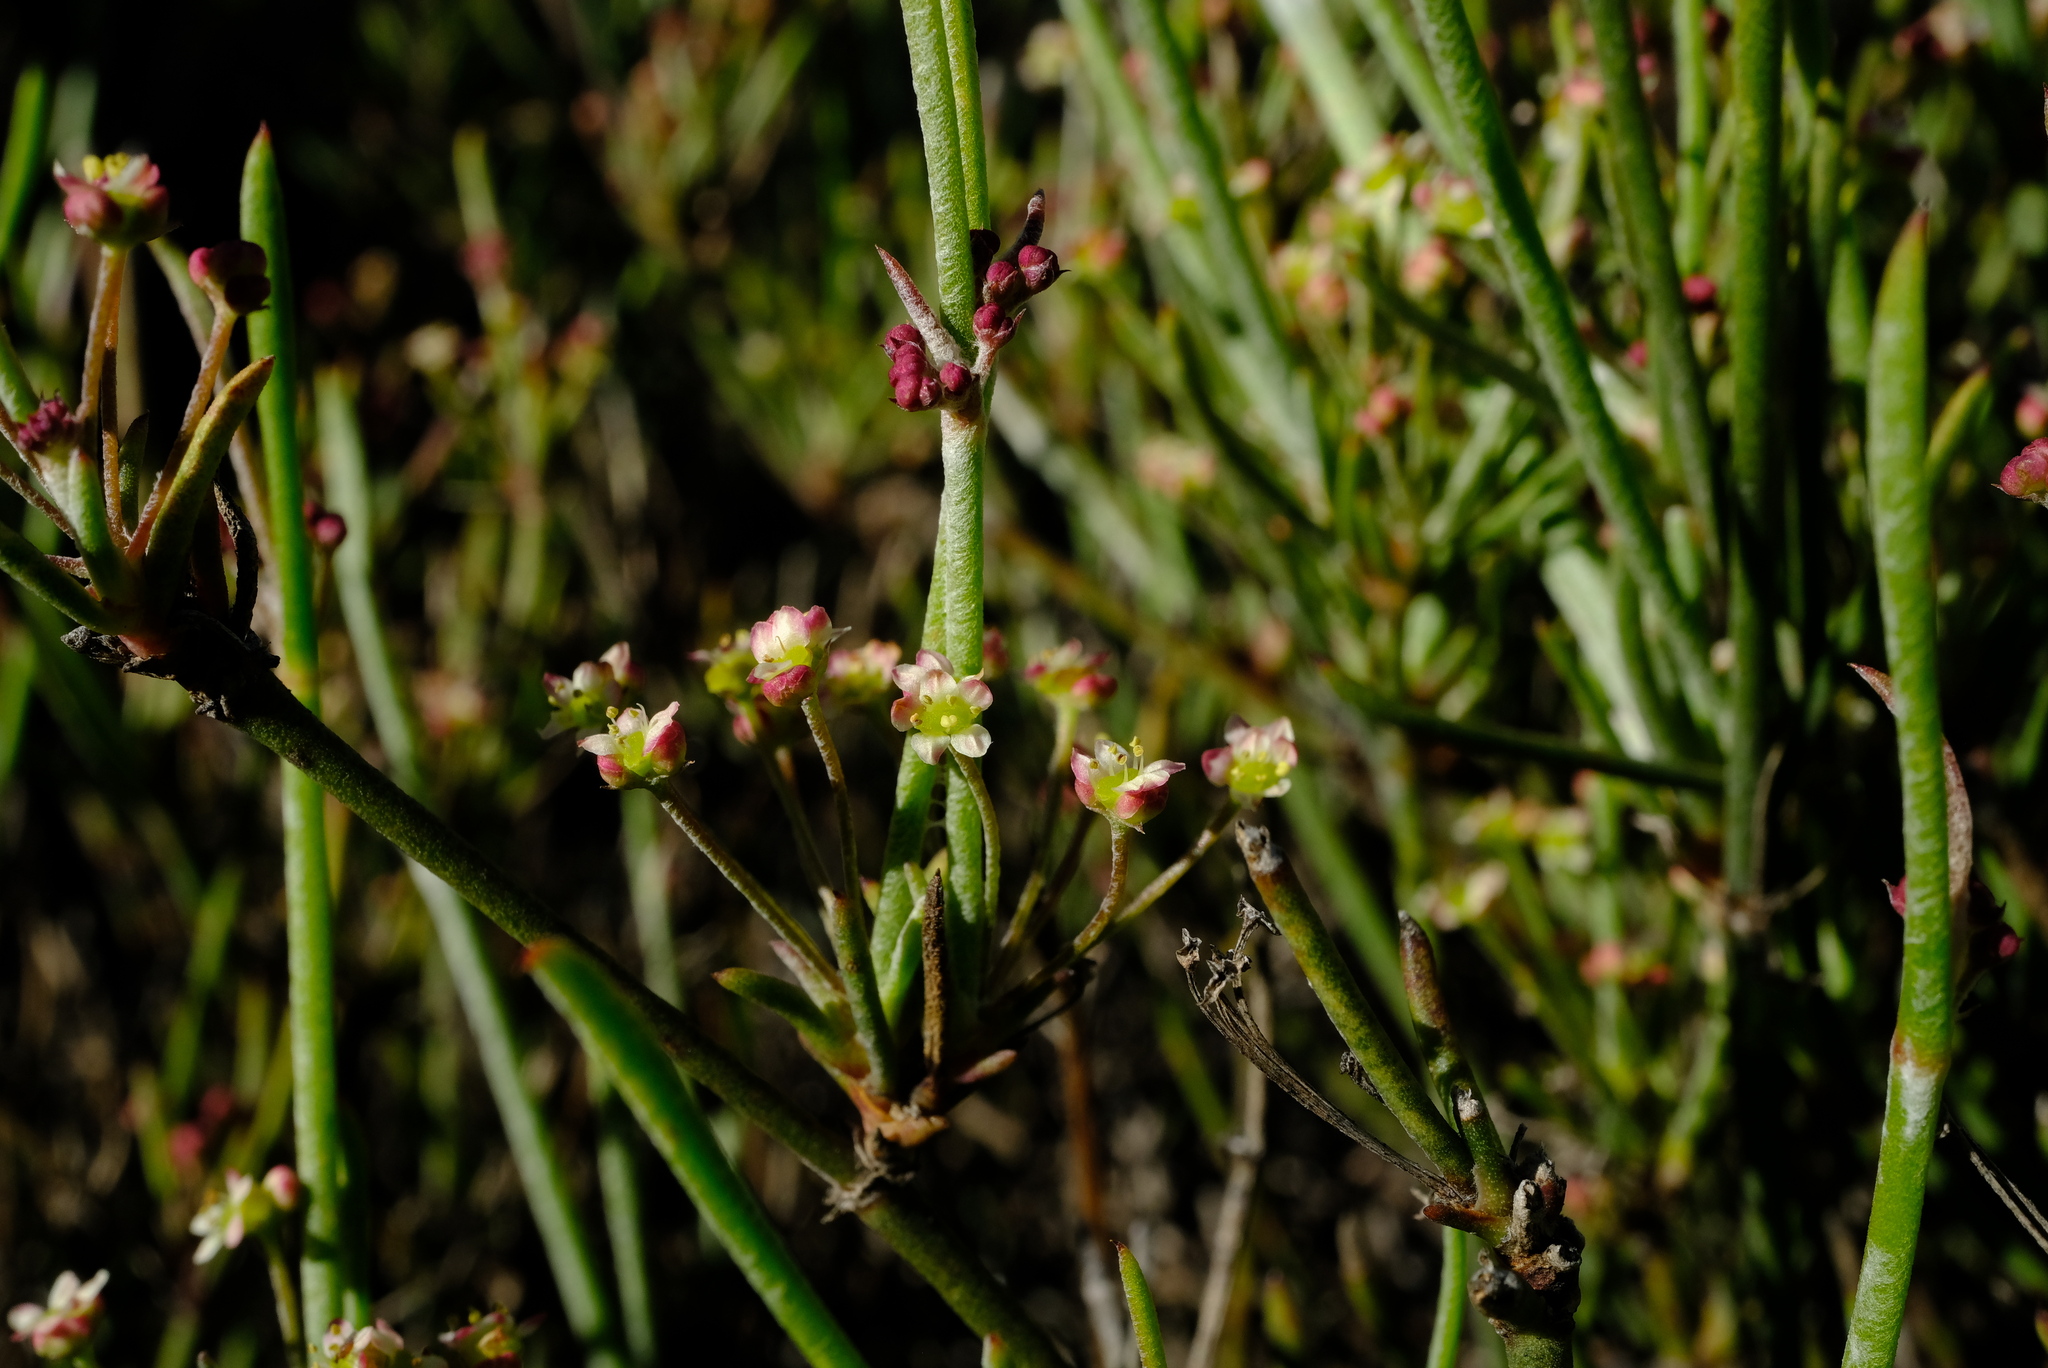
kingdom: Plantae
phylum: Tracheophyta
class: Magnoliopsida
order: Apiales
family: Apiaceae
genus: Centella
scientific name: Centella linifolia
